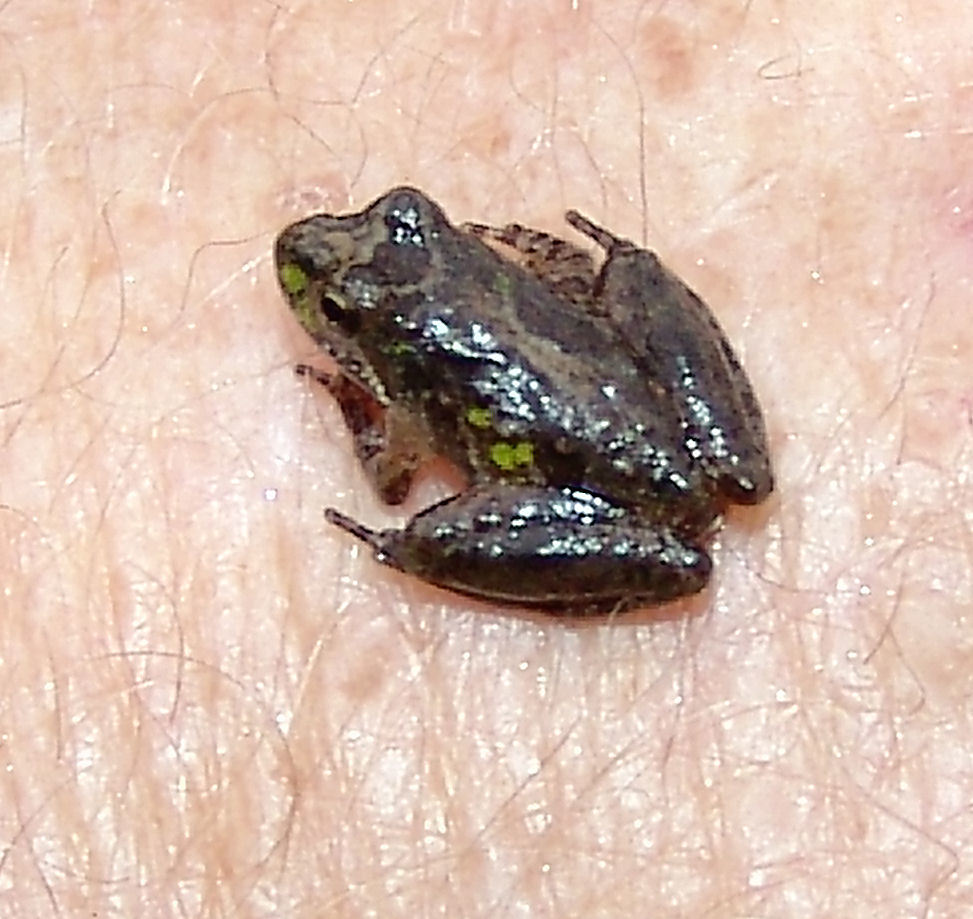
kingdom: Animalia
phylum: Chordata
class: Amphibia
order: Anura
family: Hylidae
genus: Acris
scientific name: Acris blanchardi
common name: Blanchard's cricket frog
